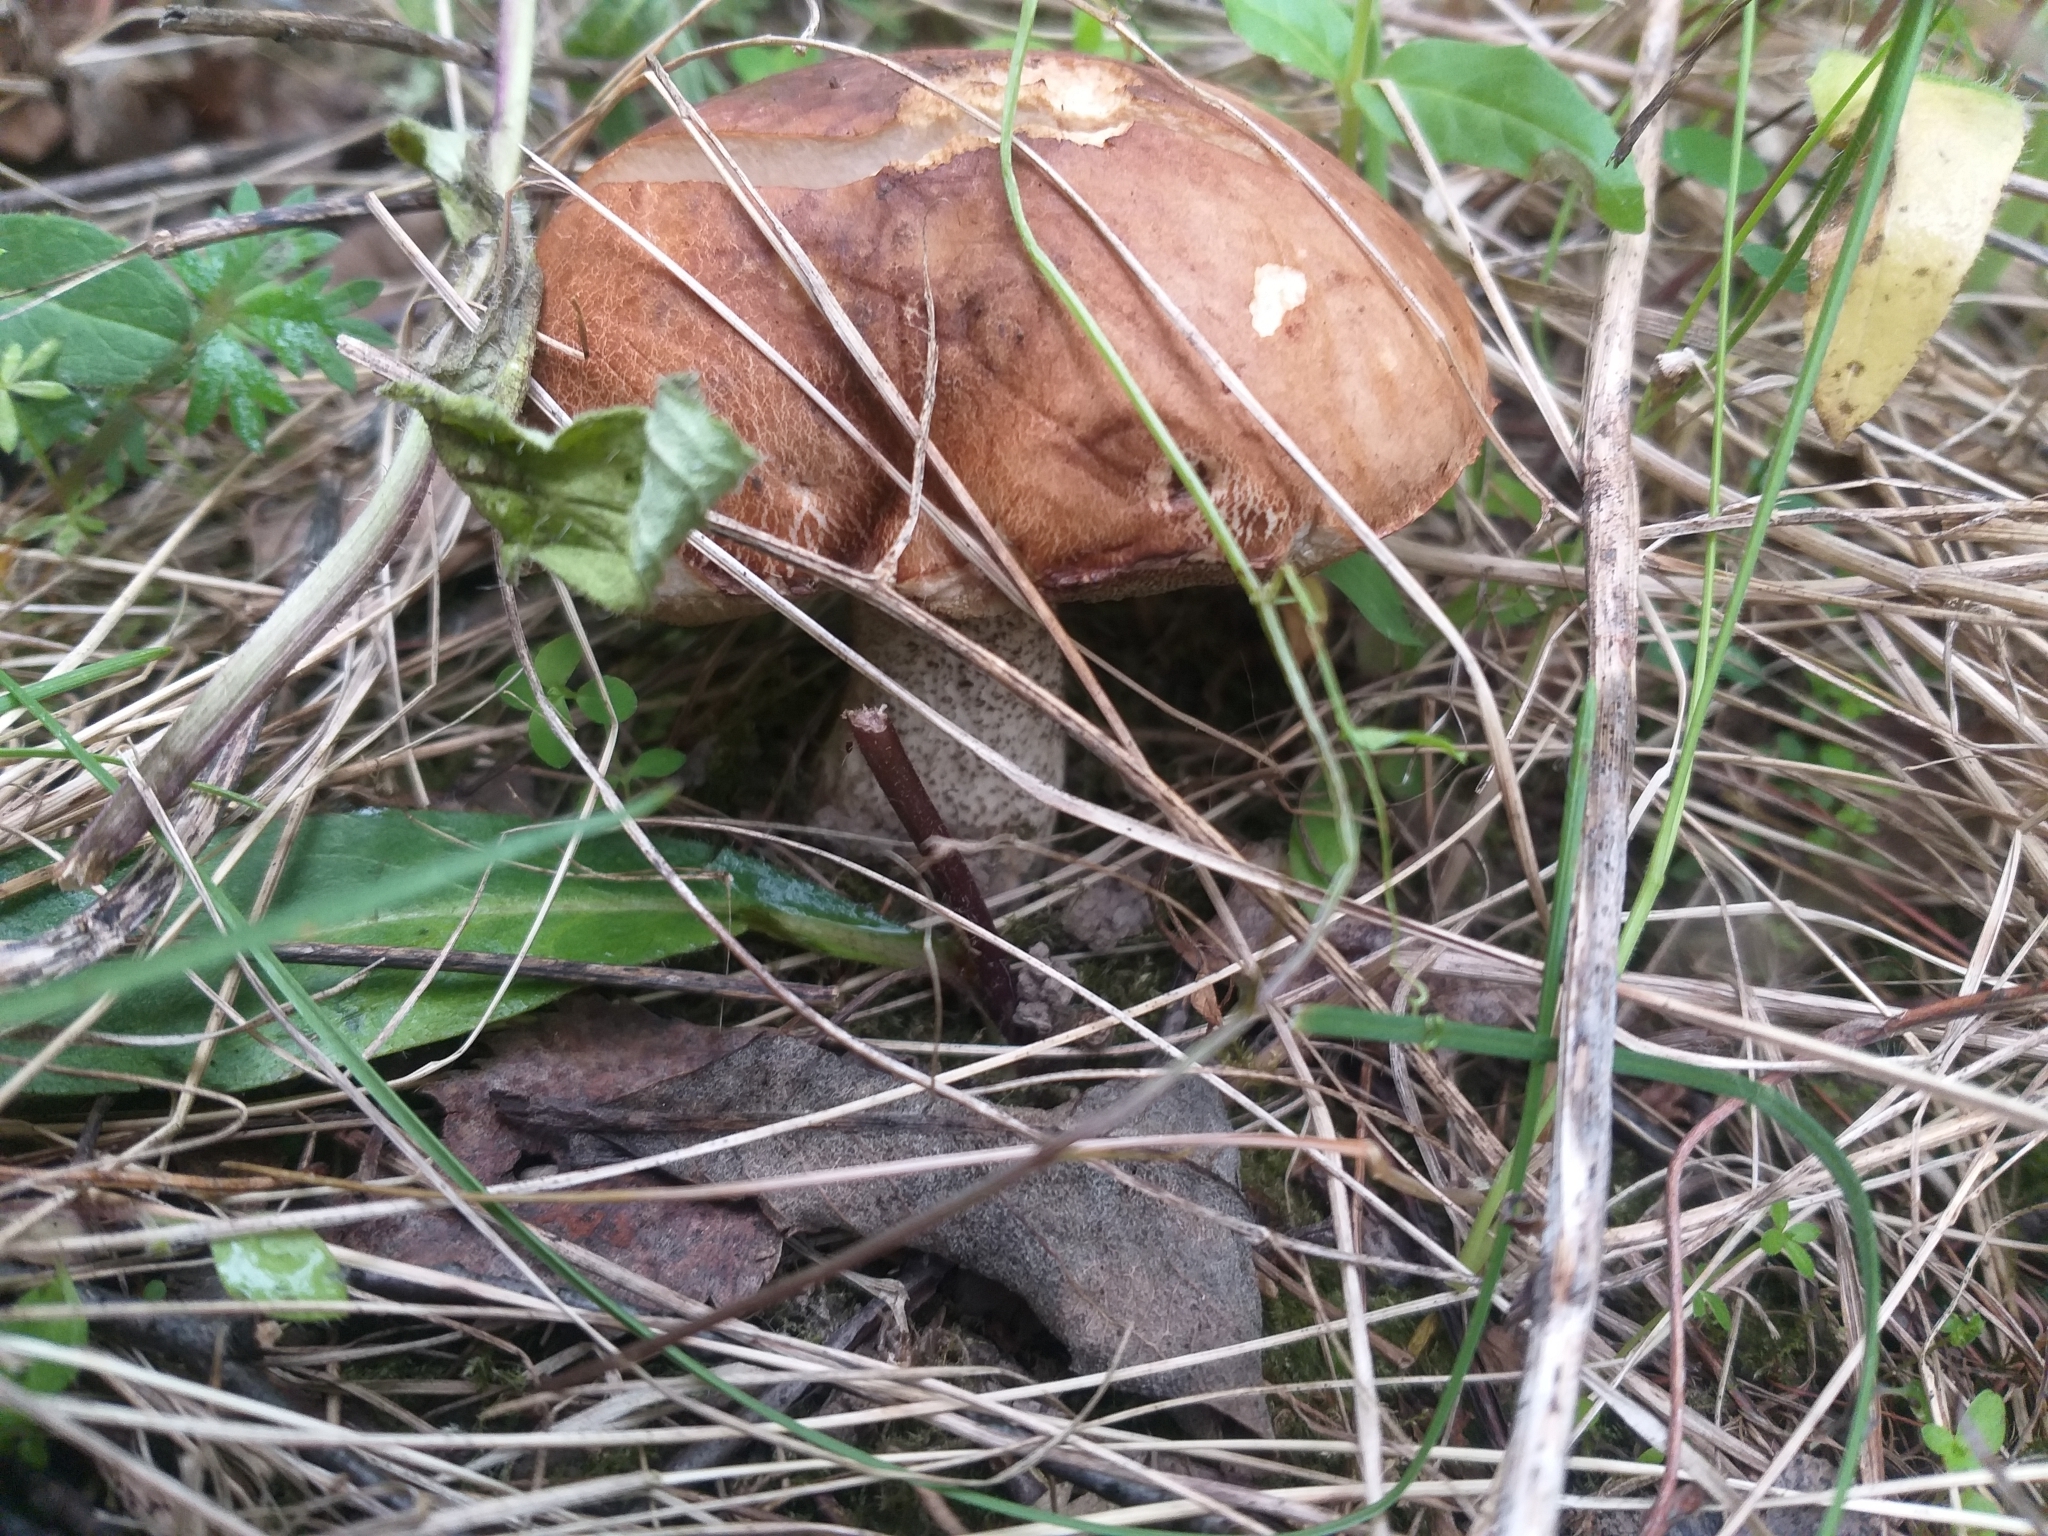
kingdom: Fungi
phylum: Basidiomycota
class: Agaricomycetes
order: Boletales
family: Boletaceae
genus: Leccinum
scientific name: Leccinum scabrum
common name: Blushing bolete
